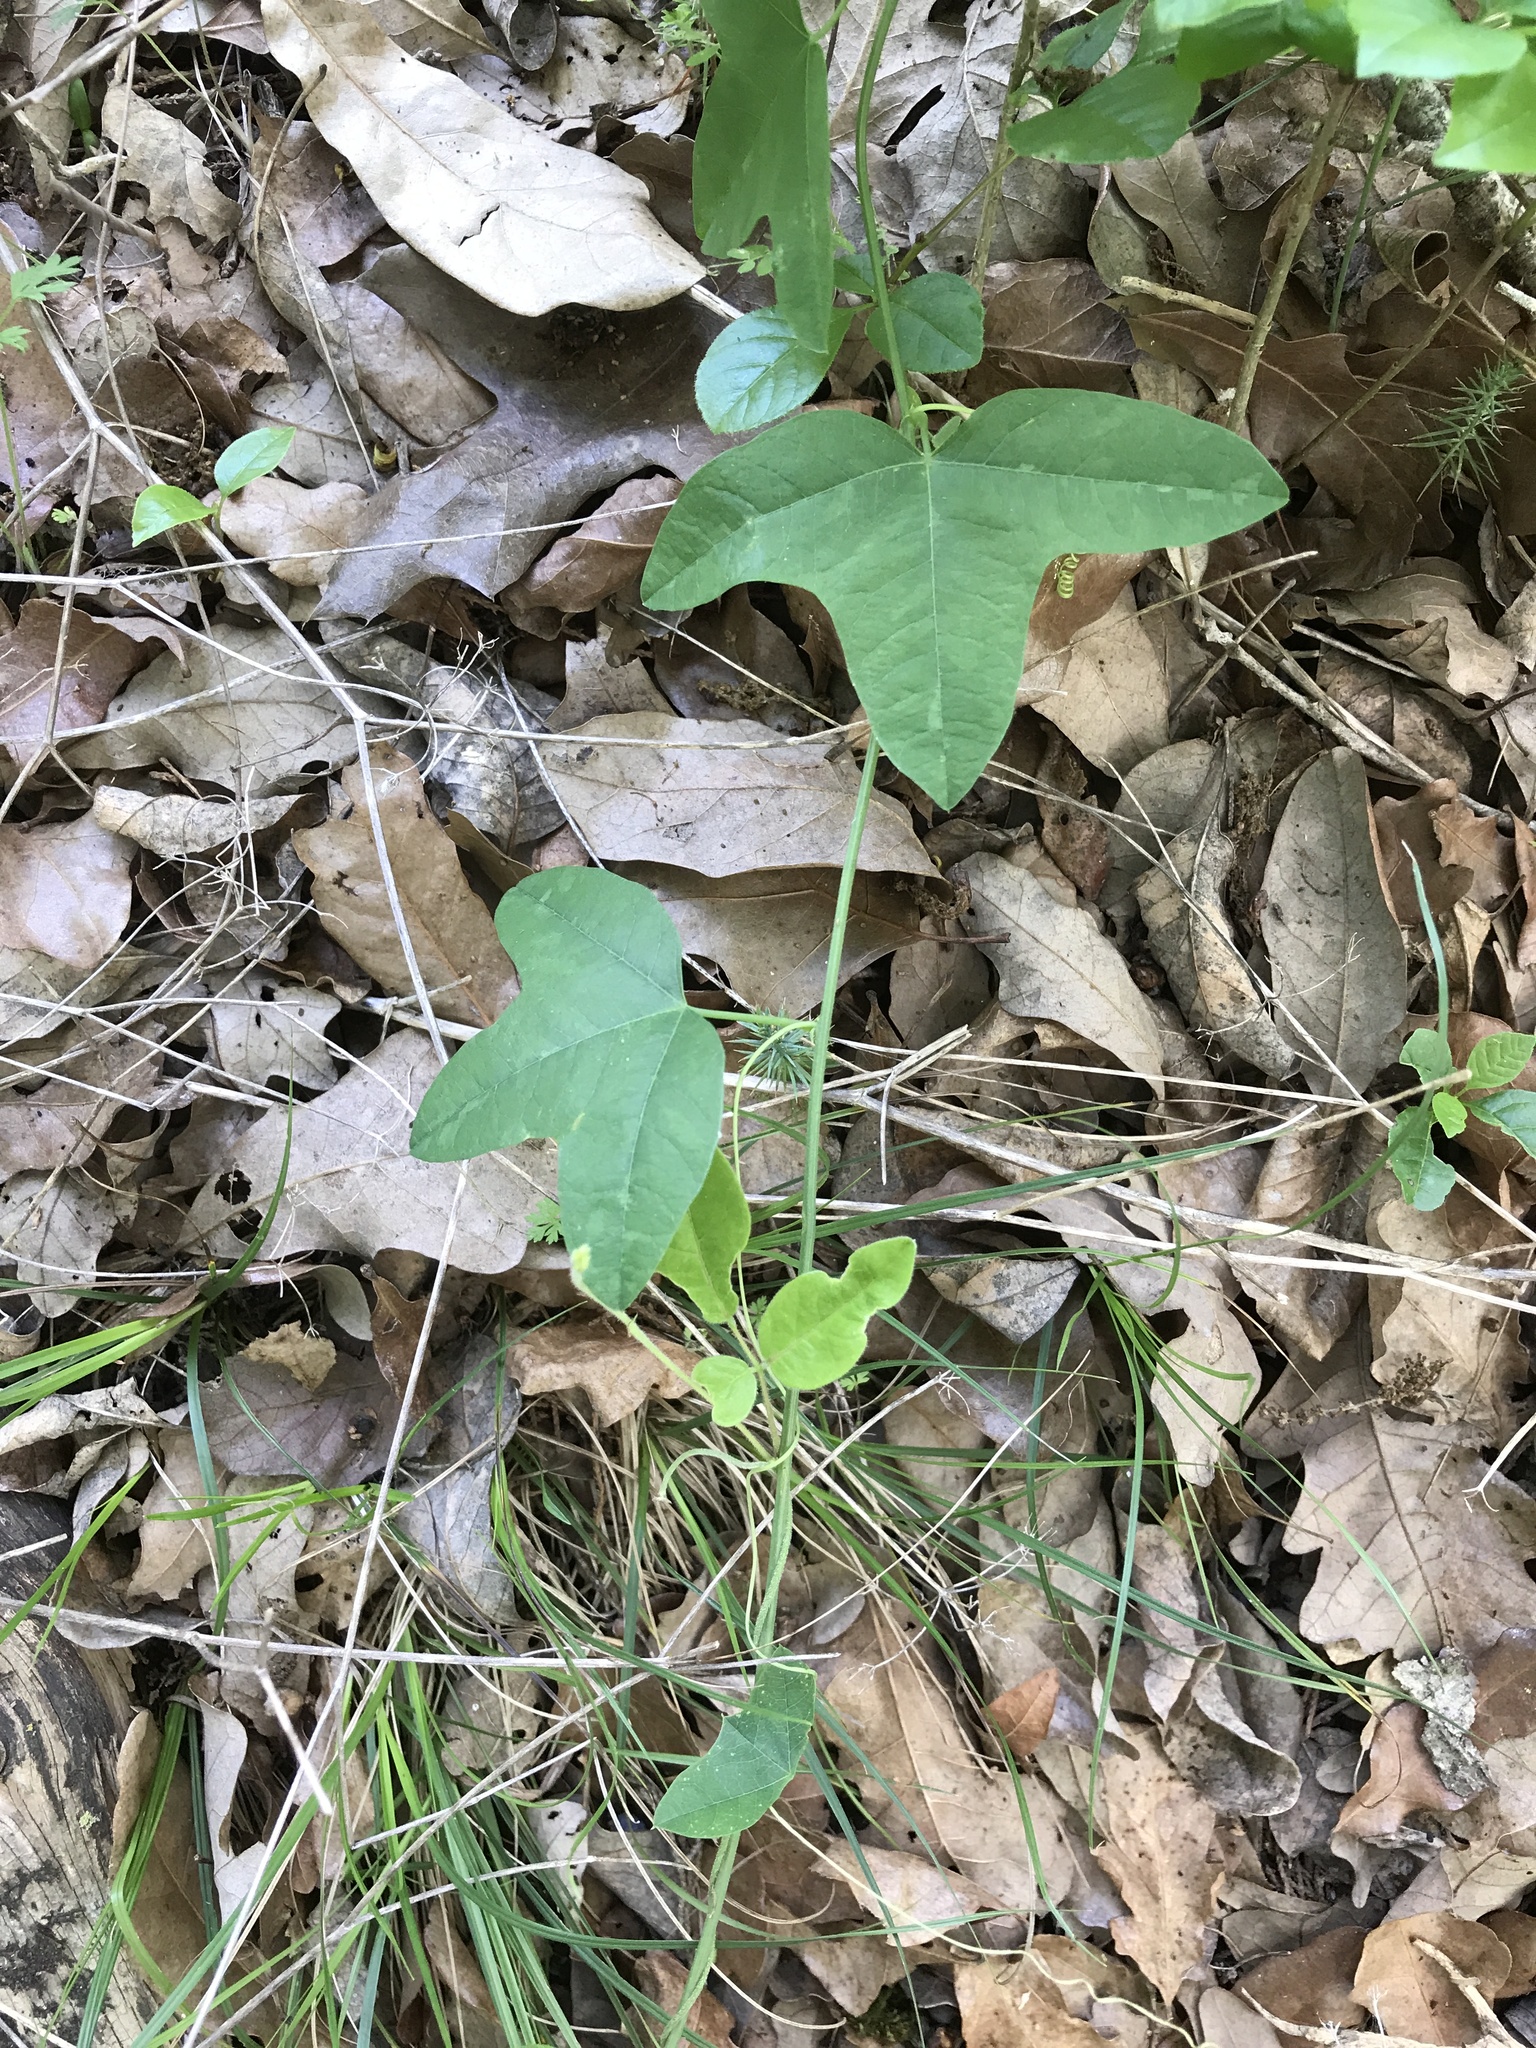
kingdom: Plantae
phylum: Tracheophyta
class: Magnoliopsida
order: Malpighiales
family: Passifloraceae
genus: Passiflora
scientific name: Passiflora lutea
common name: Yellow passionflower
